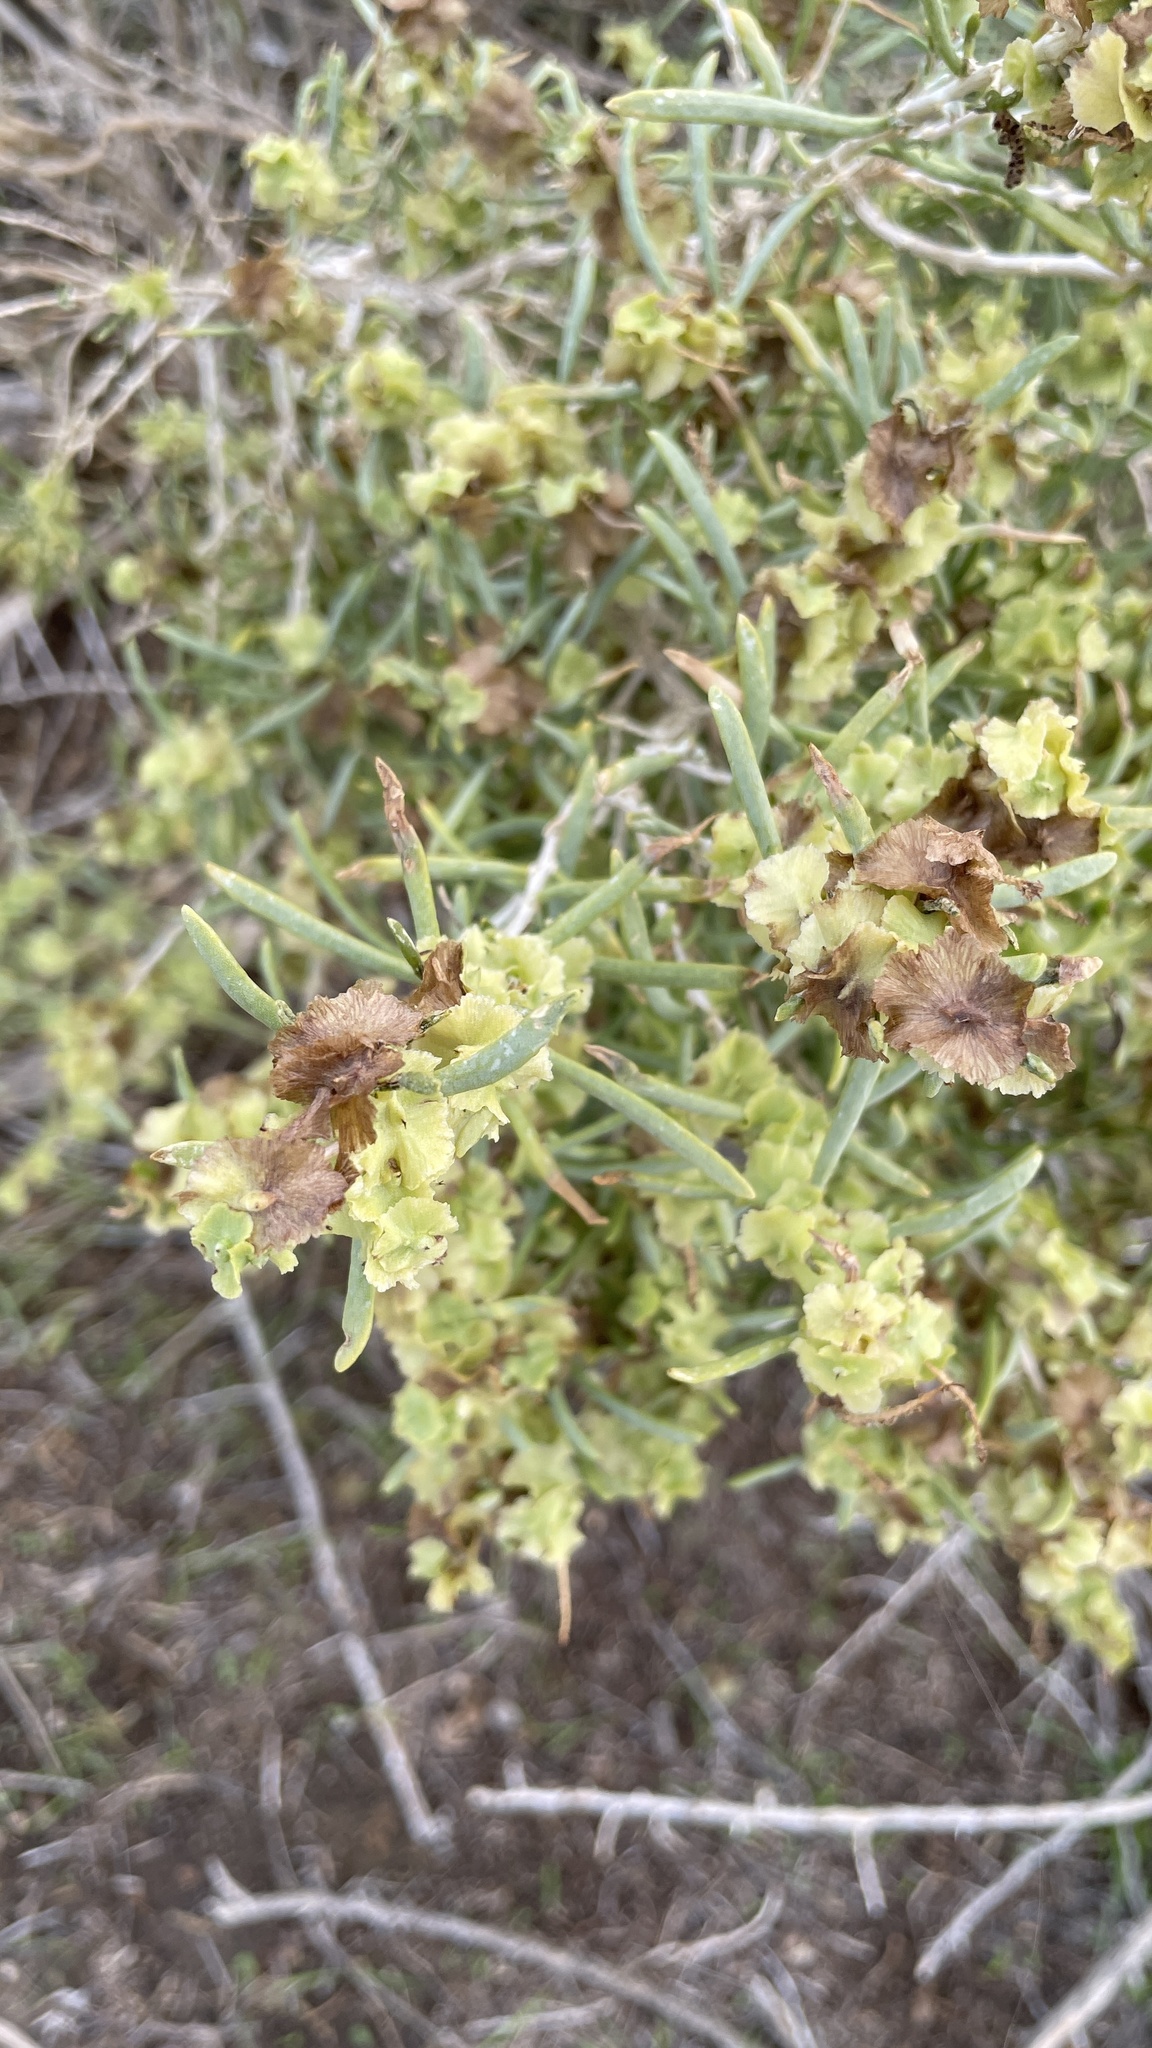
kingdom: Plantae
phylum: Tracheophyta
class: Magnoliopsida
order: Caryophyllales
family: Sarcobataceae
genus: Sarcobatus
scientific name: Sarcobatus vermiculatus
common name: Greasewood
